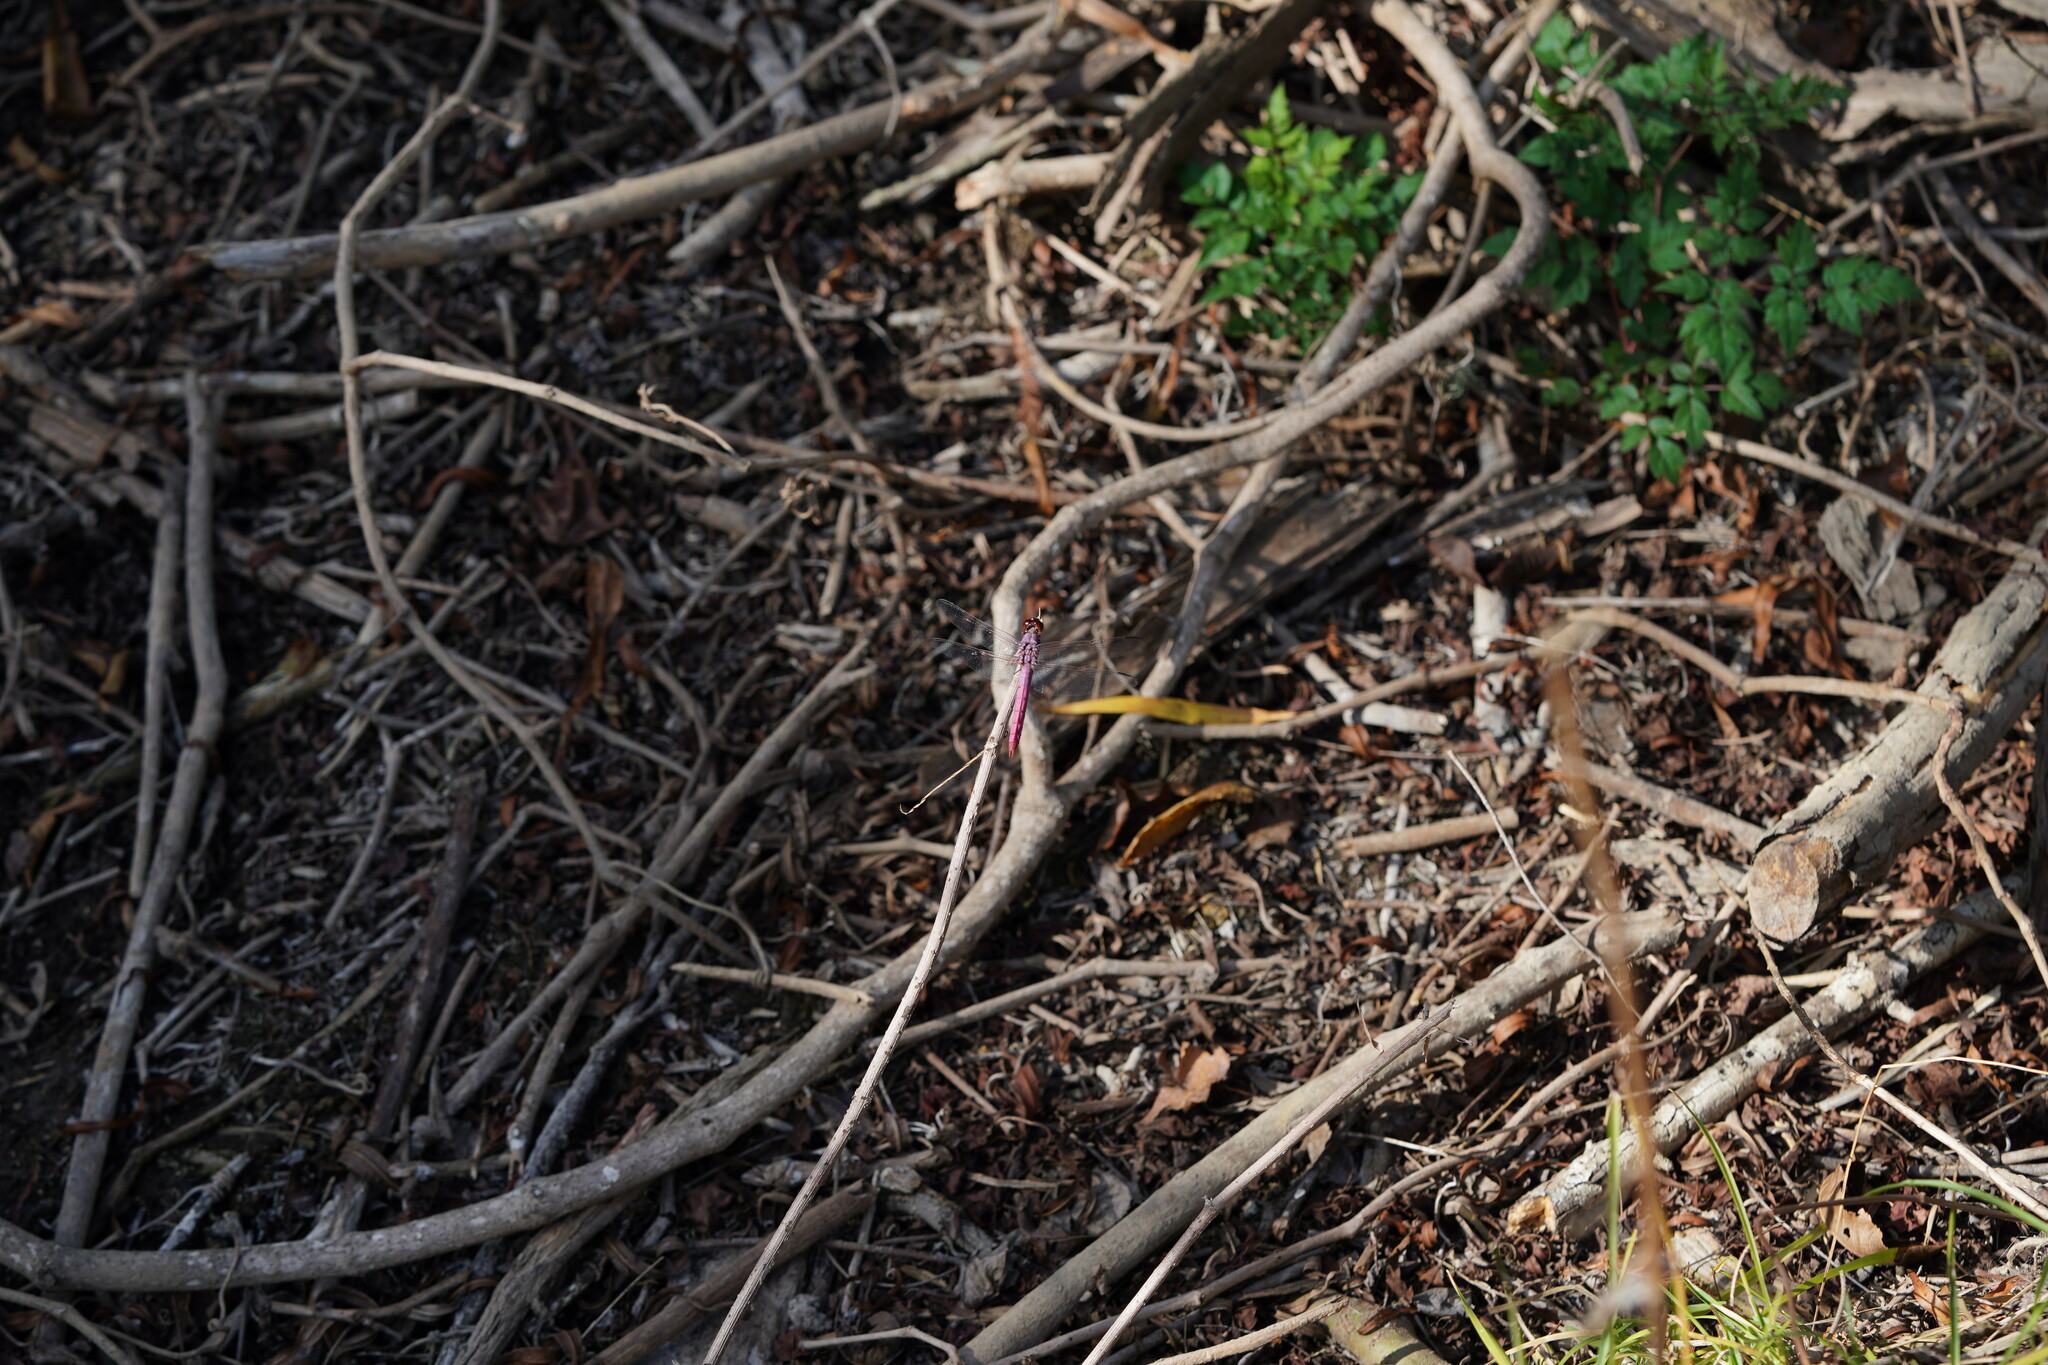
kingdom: Animalia
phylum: Arthropoda
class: Insecta
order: Odonata
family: Libellulidae
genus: Orthemis
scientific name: Orthemis ferruginea
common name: Roseate skimmer
